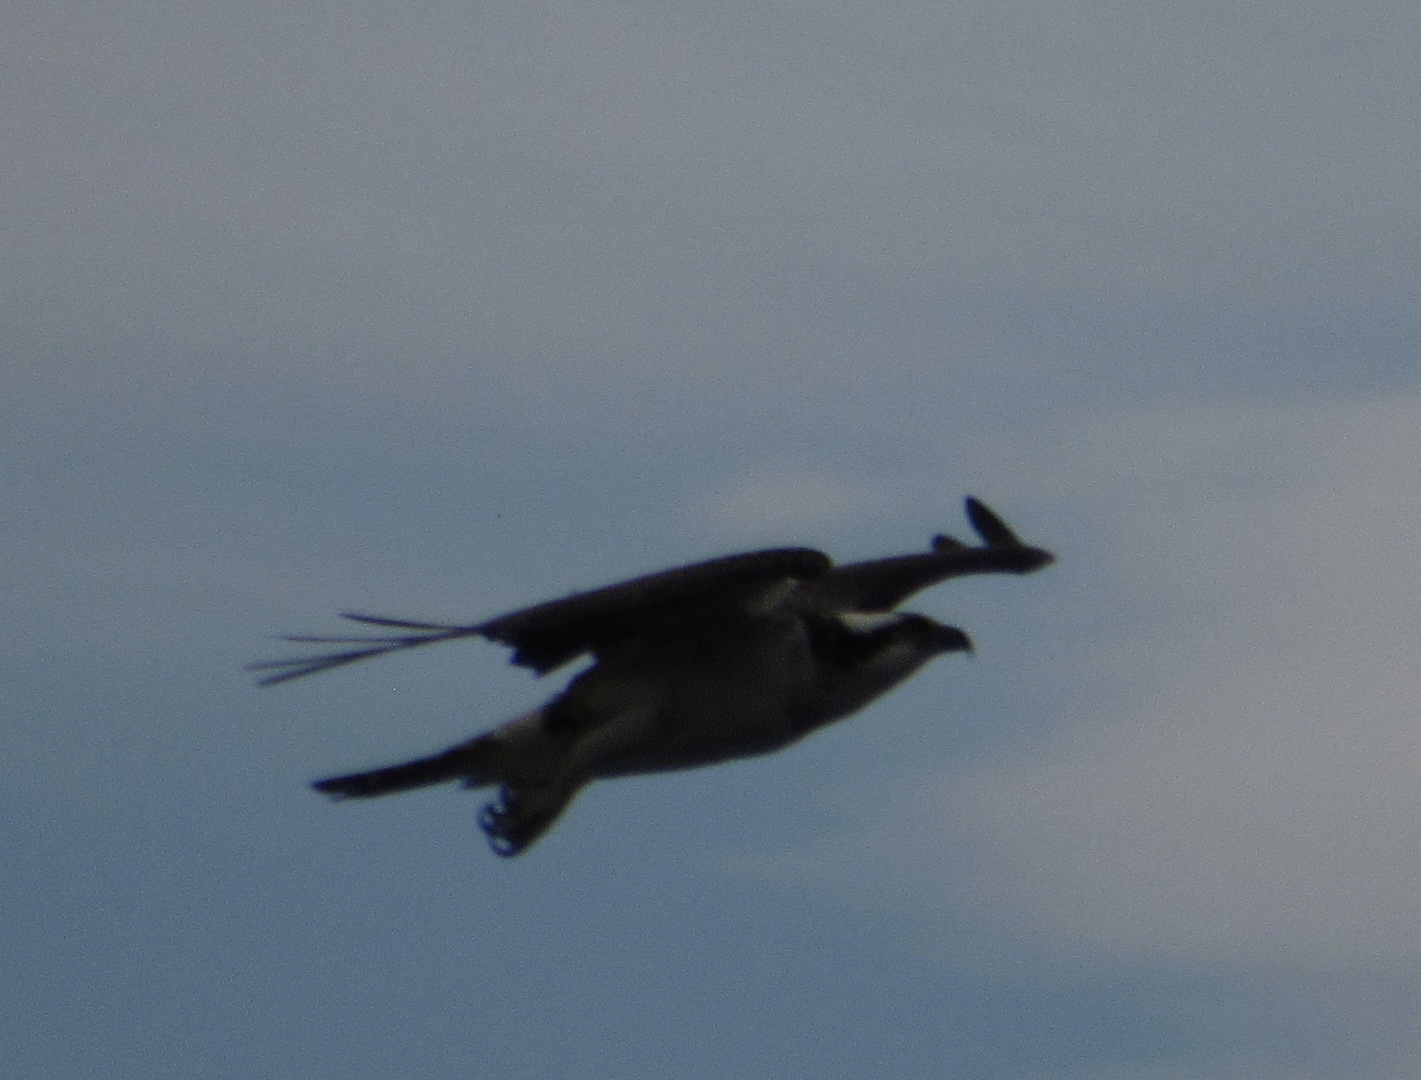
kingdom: Animalia
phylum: Chordata
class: Aves
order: Accipitriformes
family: Pandionidae
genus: Pandion
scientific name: Pandion haliaetus
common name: Osprey
